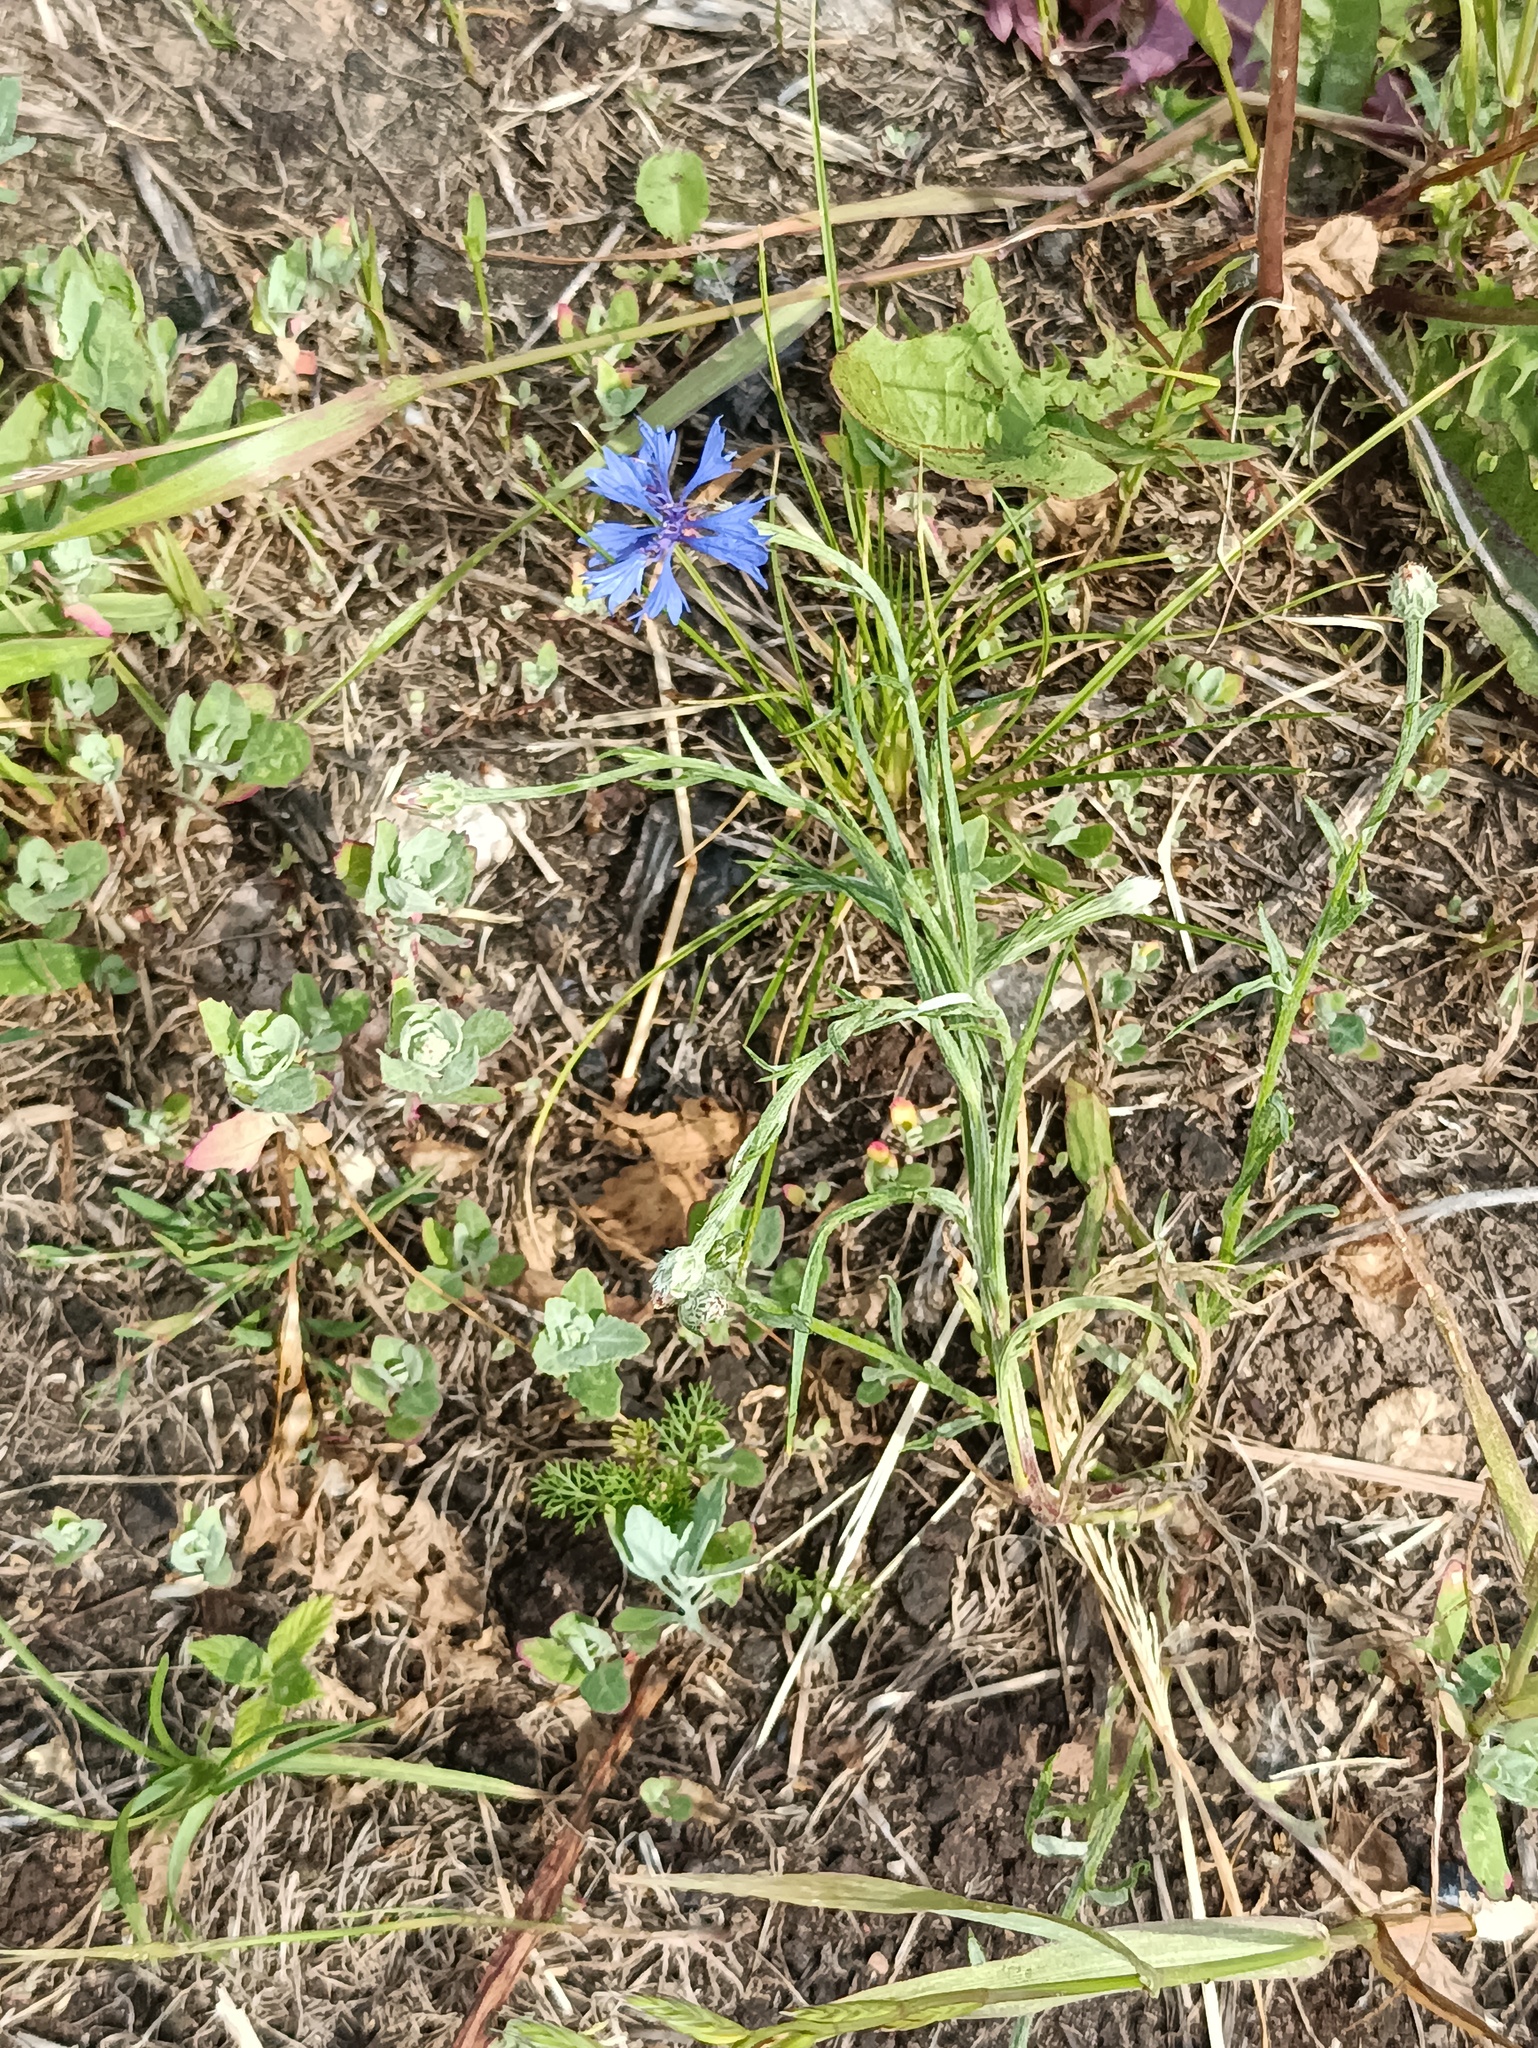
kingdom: Plantae
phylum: Tracheophyta
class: Magnoliopsida
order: Asterales
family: Asteraceae
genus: Centaurea
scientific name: Centaurea cyanus
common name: Cornflower
